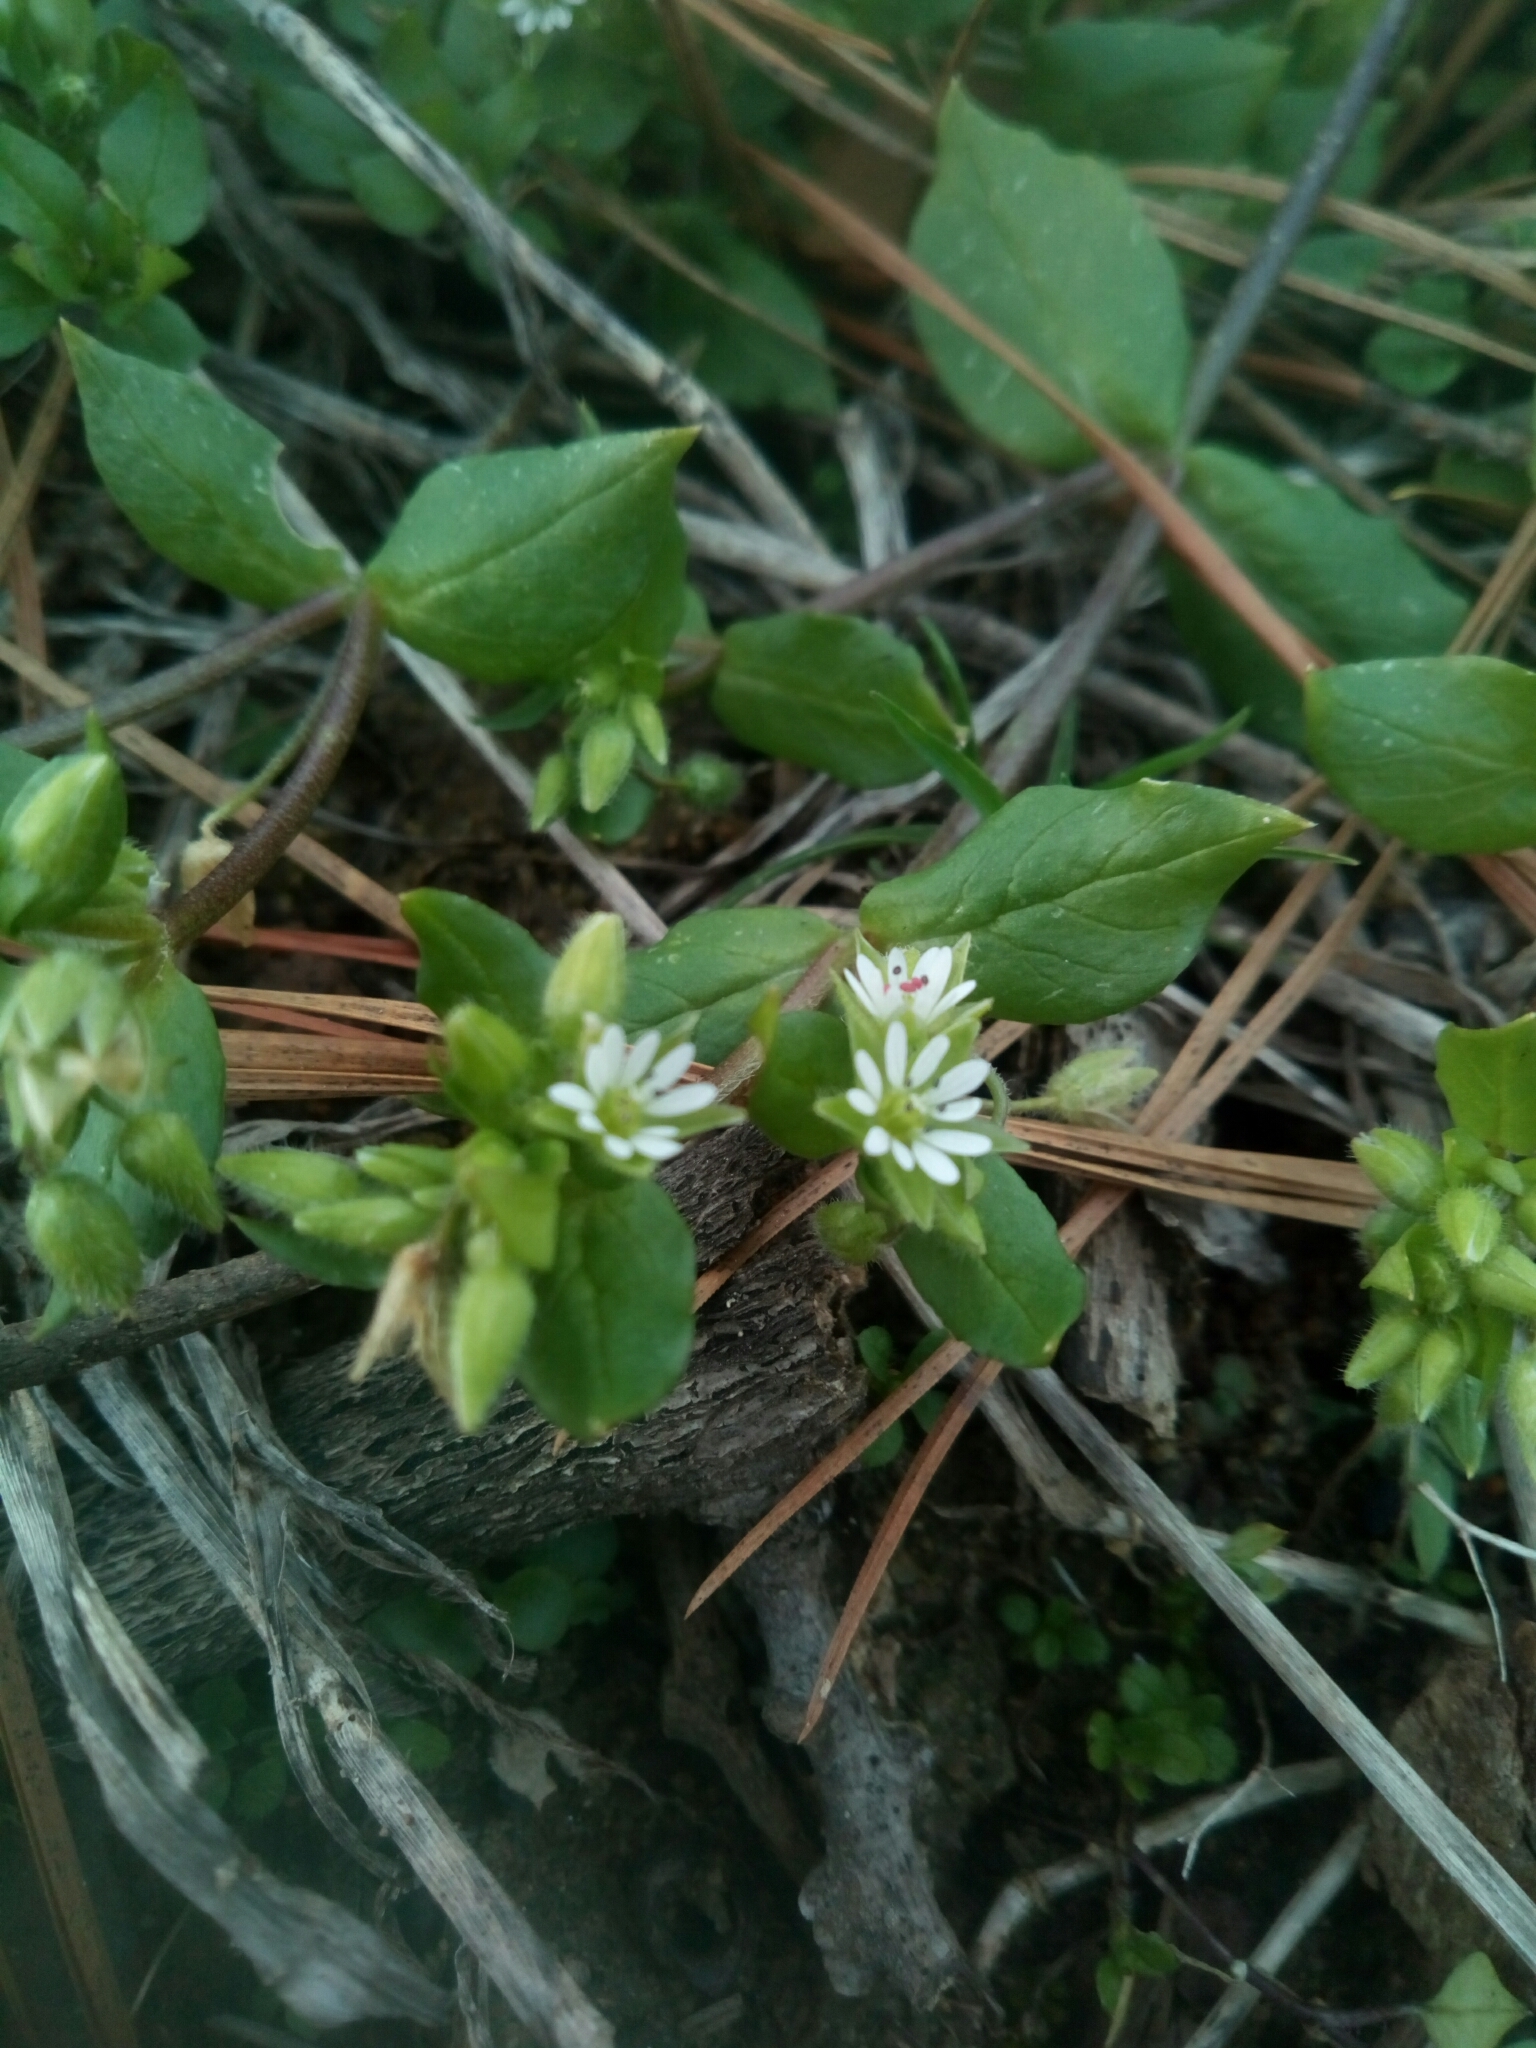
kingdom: Plantae
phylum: Tracheophyta
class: Magnoliopsida
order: Caryophyllales
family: Caryophyllaceae
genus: Stellaria
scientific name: Stellaria media
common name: Common chickweed
